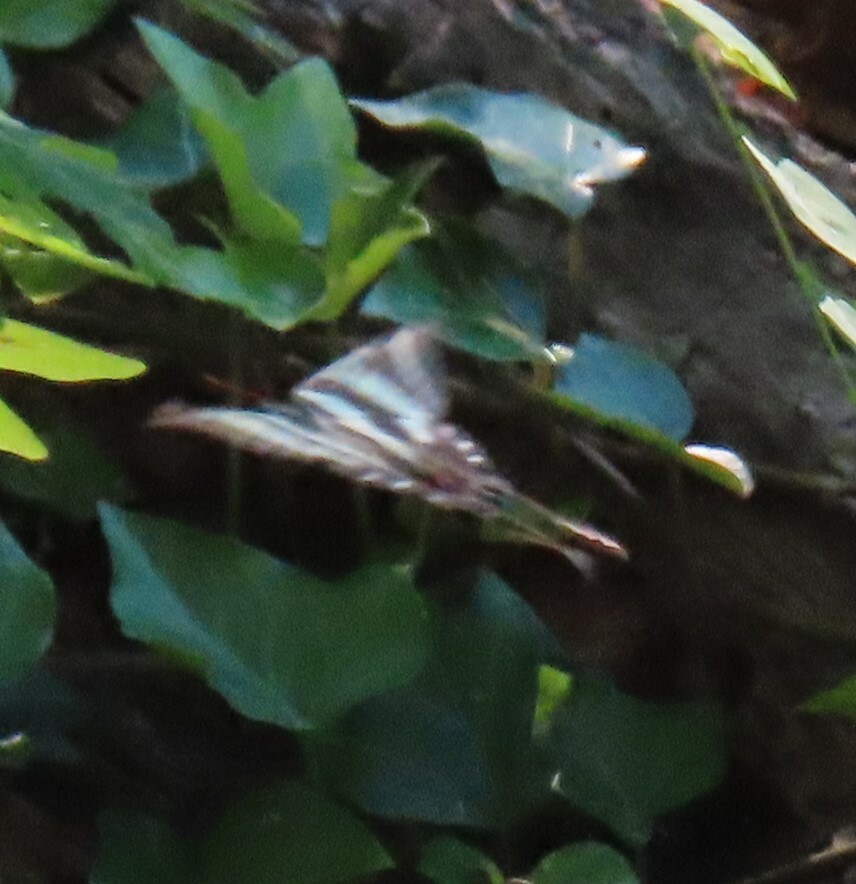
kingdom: Animalia
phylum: Arthropoda
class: Insecta
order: Lepidoptera
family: Papilionidae
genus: Protographium
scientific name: Protographium marcellus
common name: Zebra swallowtail
